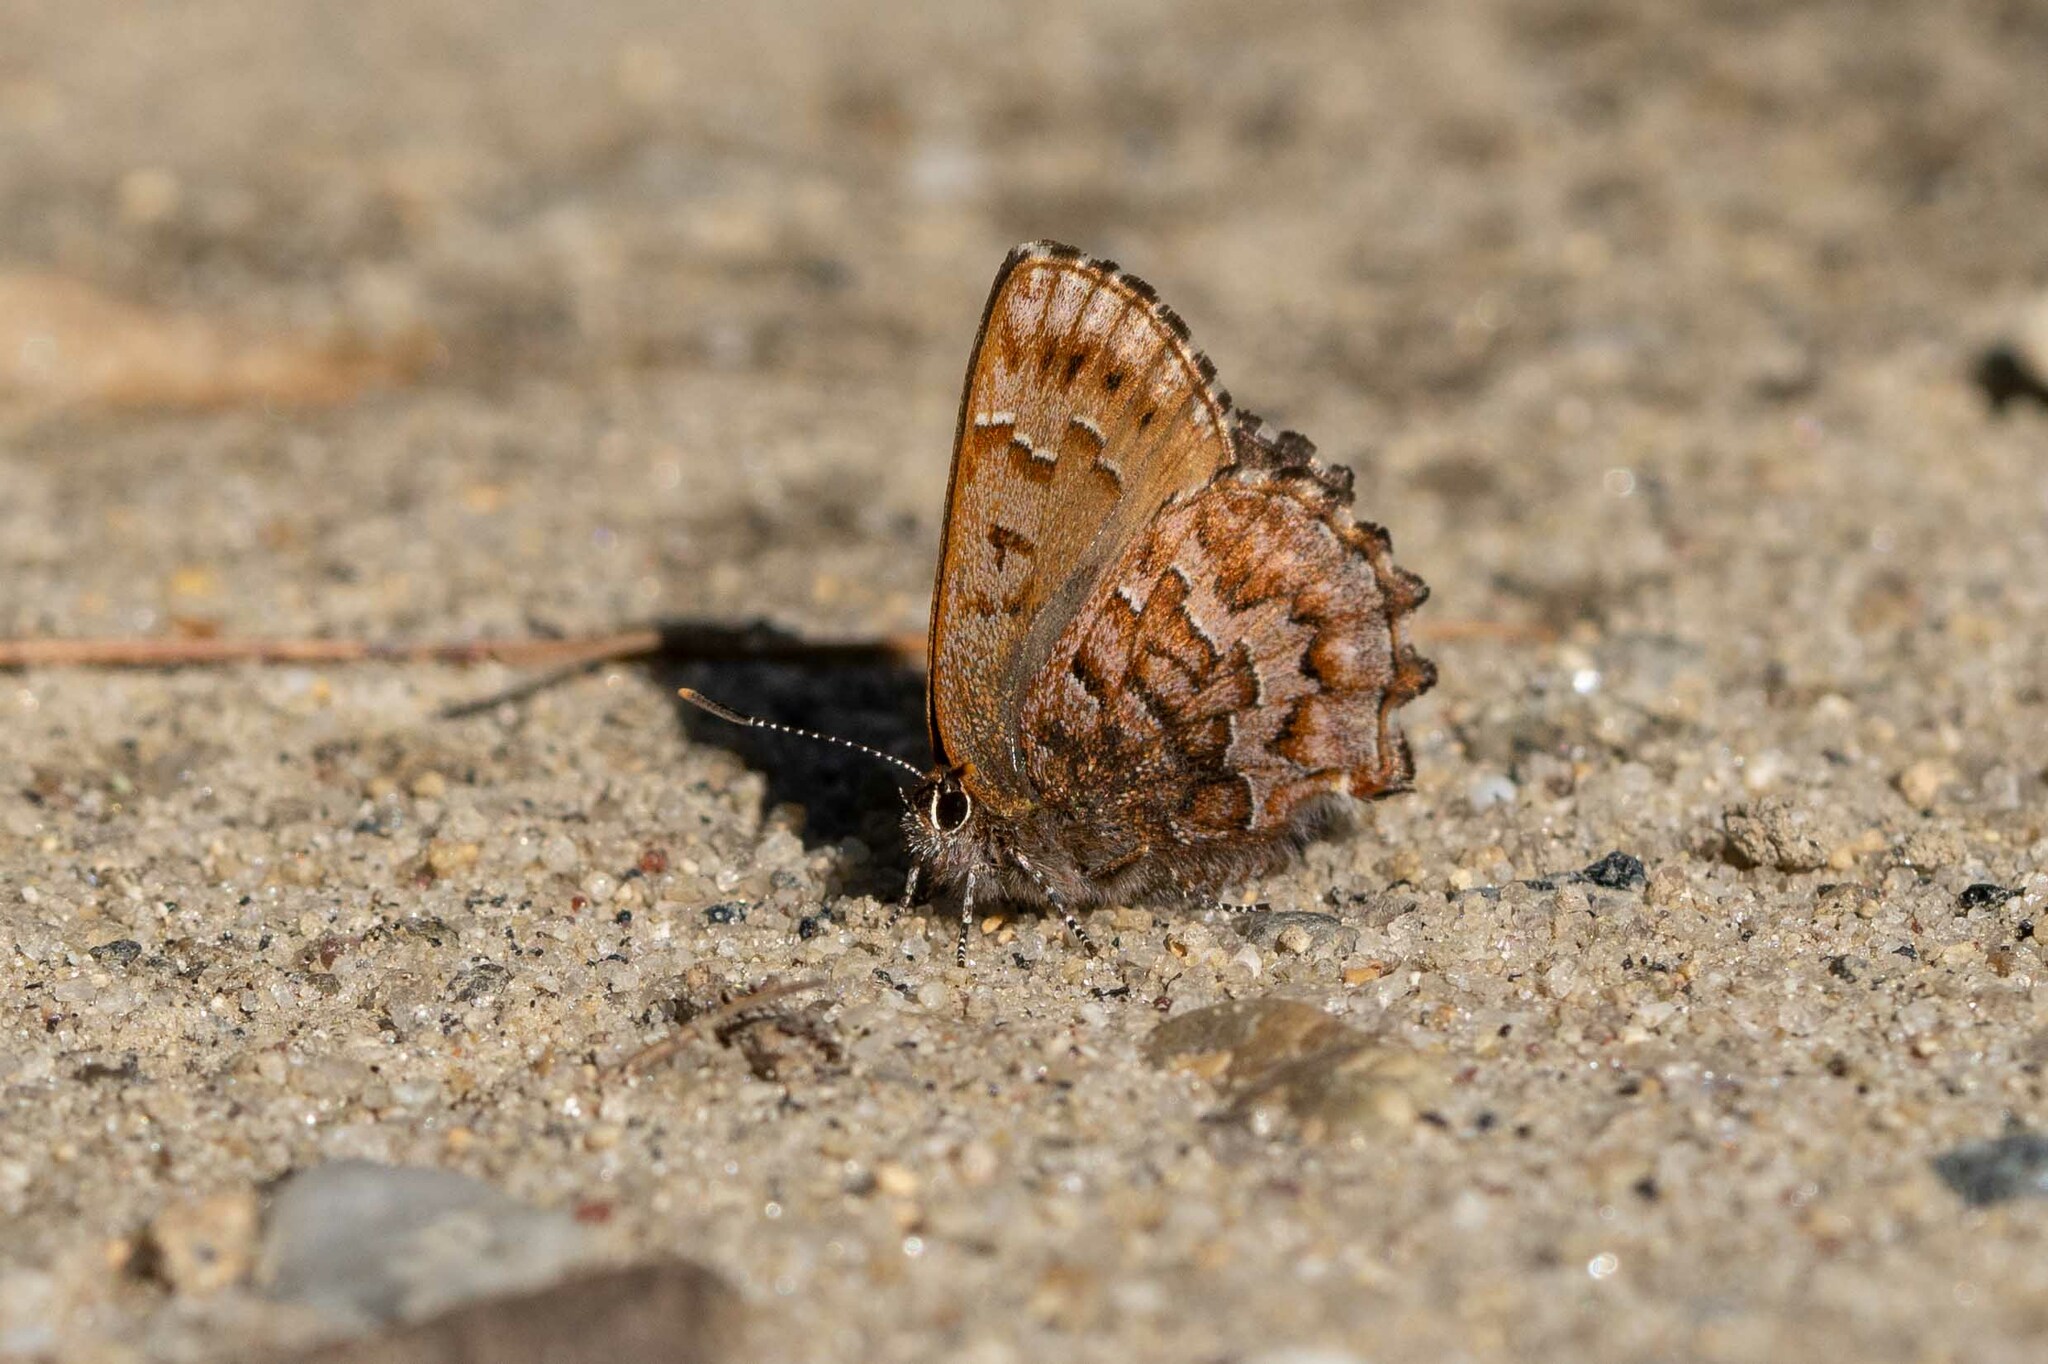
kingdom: Animalia
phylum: Arthropoda
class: Insecta
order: Lepidoptera
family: Lycaenidae
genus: Incisalia
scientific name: Incisalia niphon
